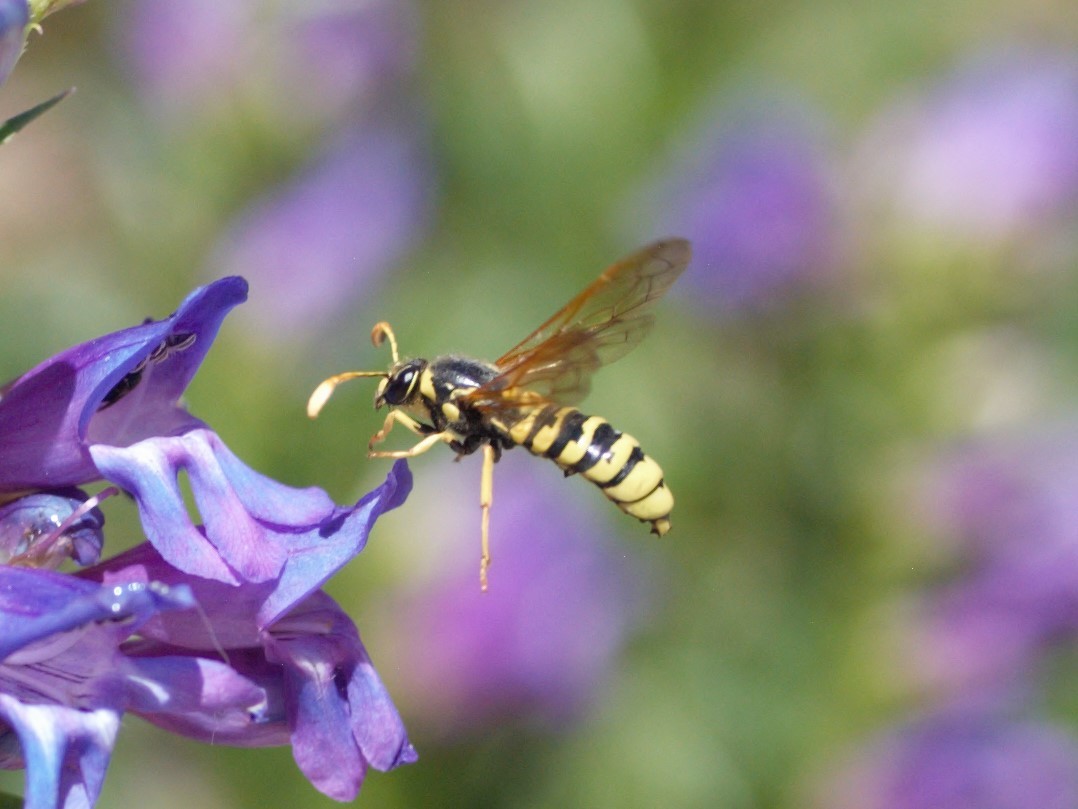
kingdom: Animalia
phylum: Arthropoda
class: Insecta
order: Hymenoptera
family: Masaridae
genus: Pseudomasaris
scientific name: Pseudomasaris vespoides
